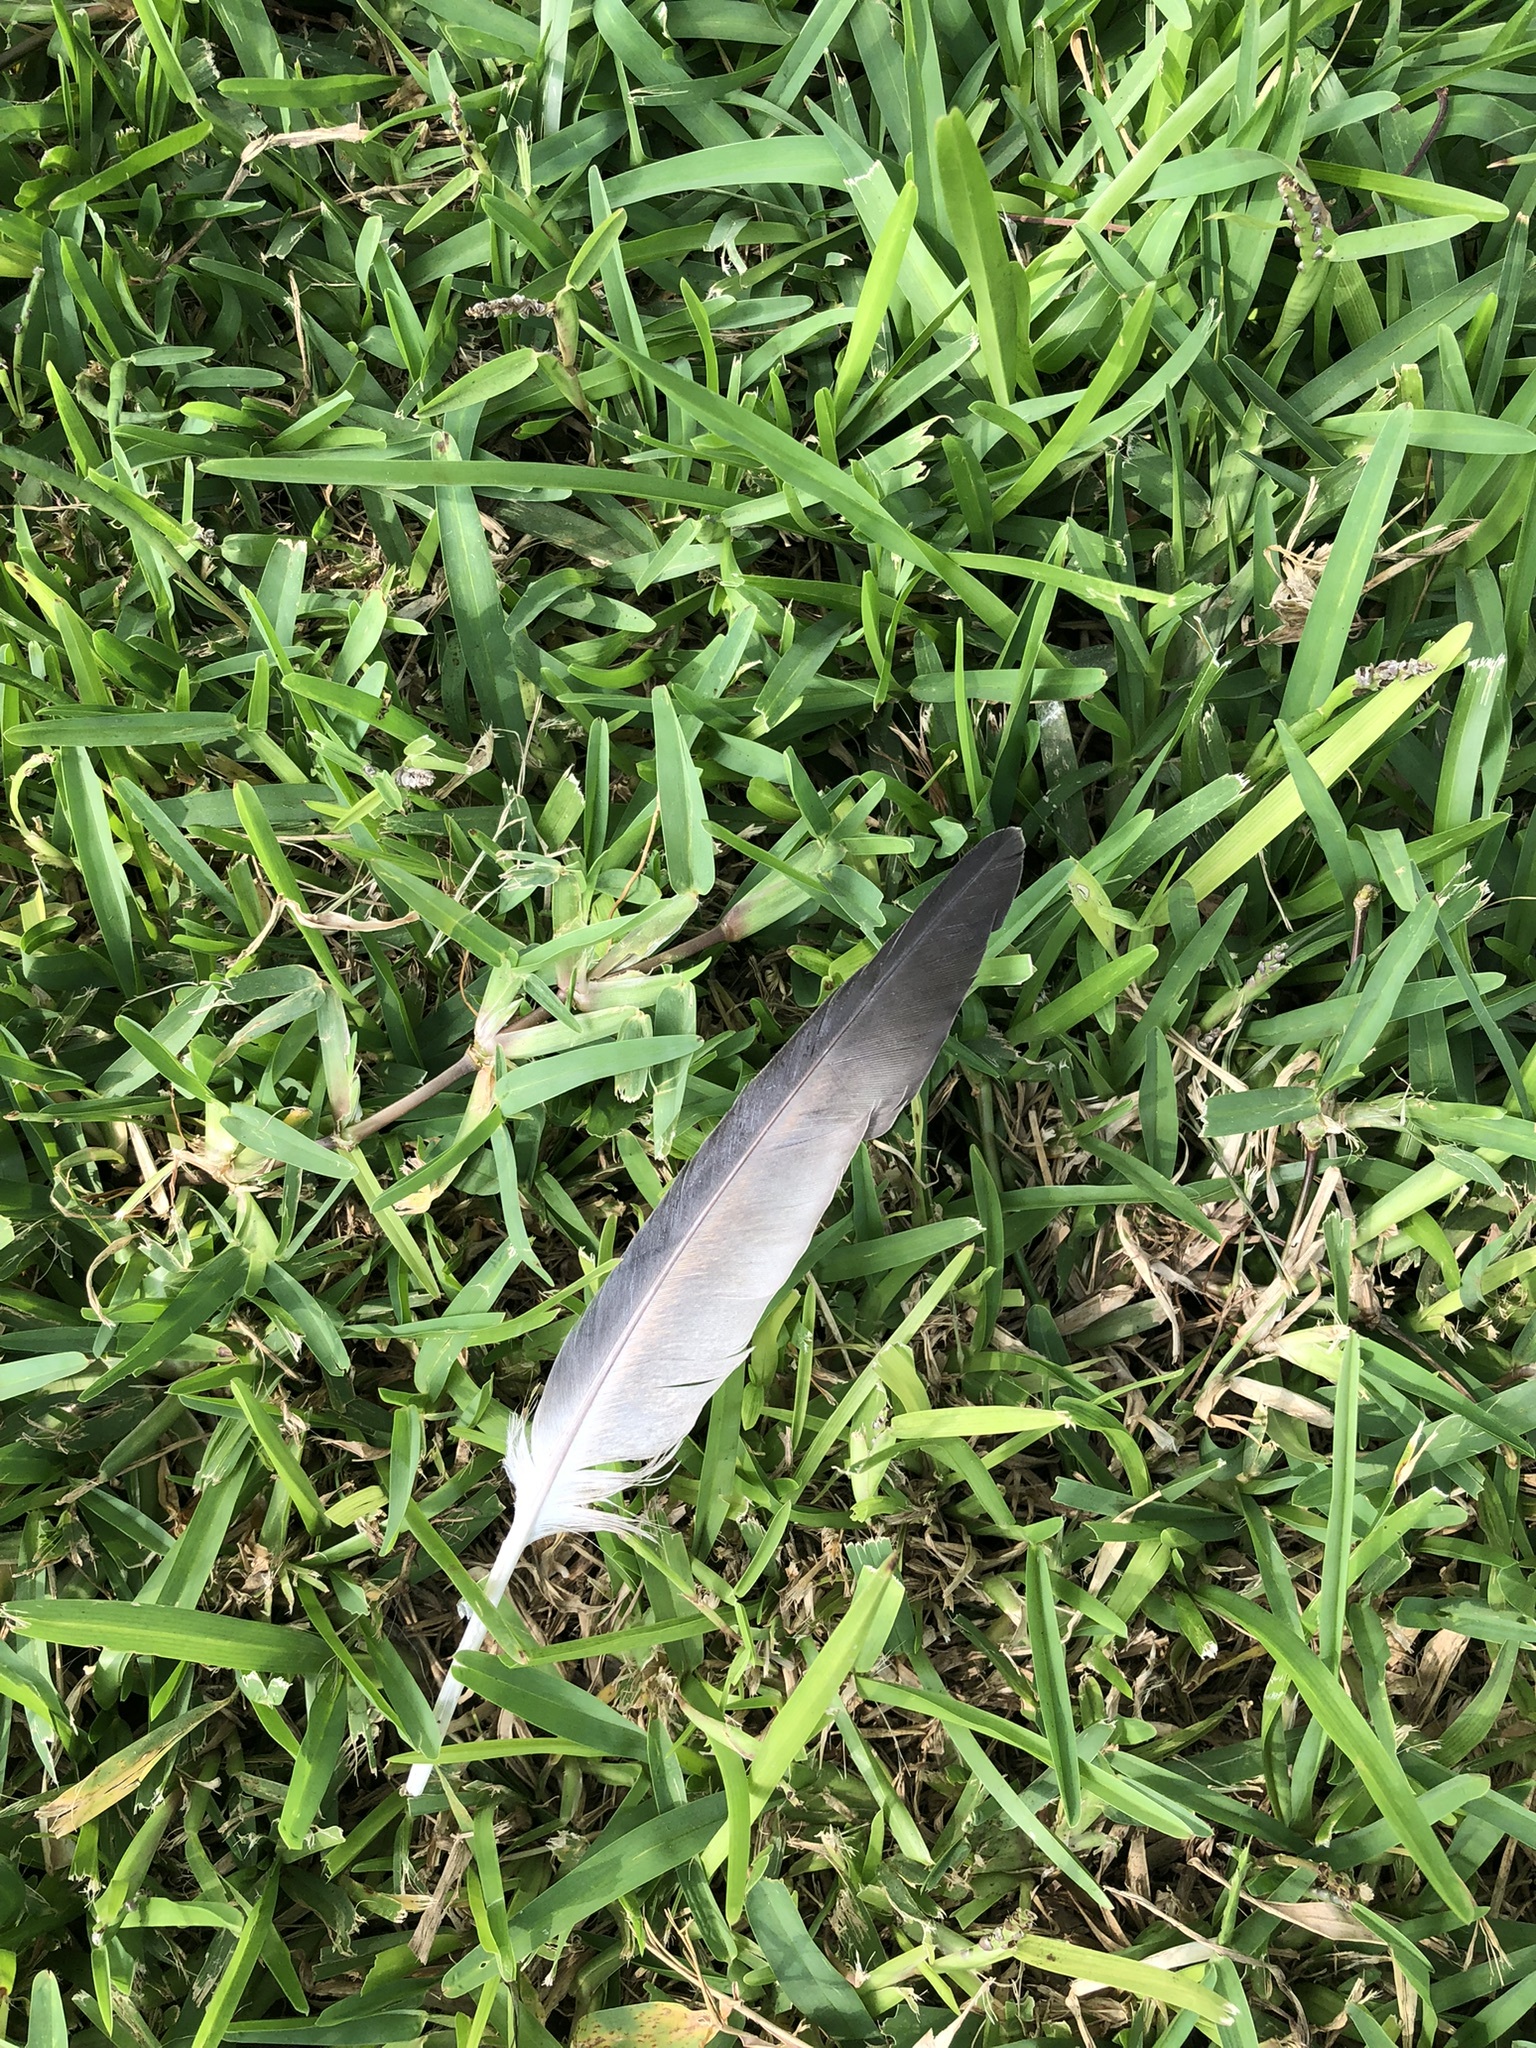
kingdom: Animalia
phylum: Chordata
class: Aves
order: Columbiformes
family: Columbidae
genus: Columba
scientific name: Columba livia
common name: Rock pigeon
